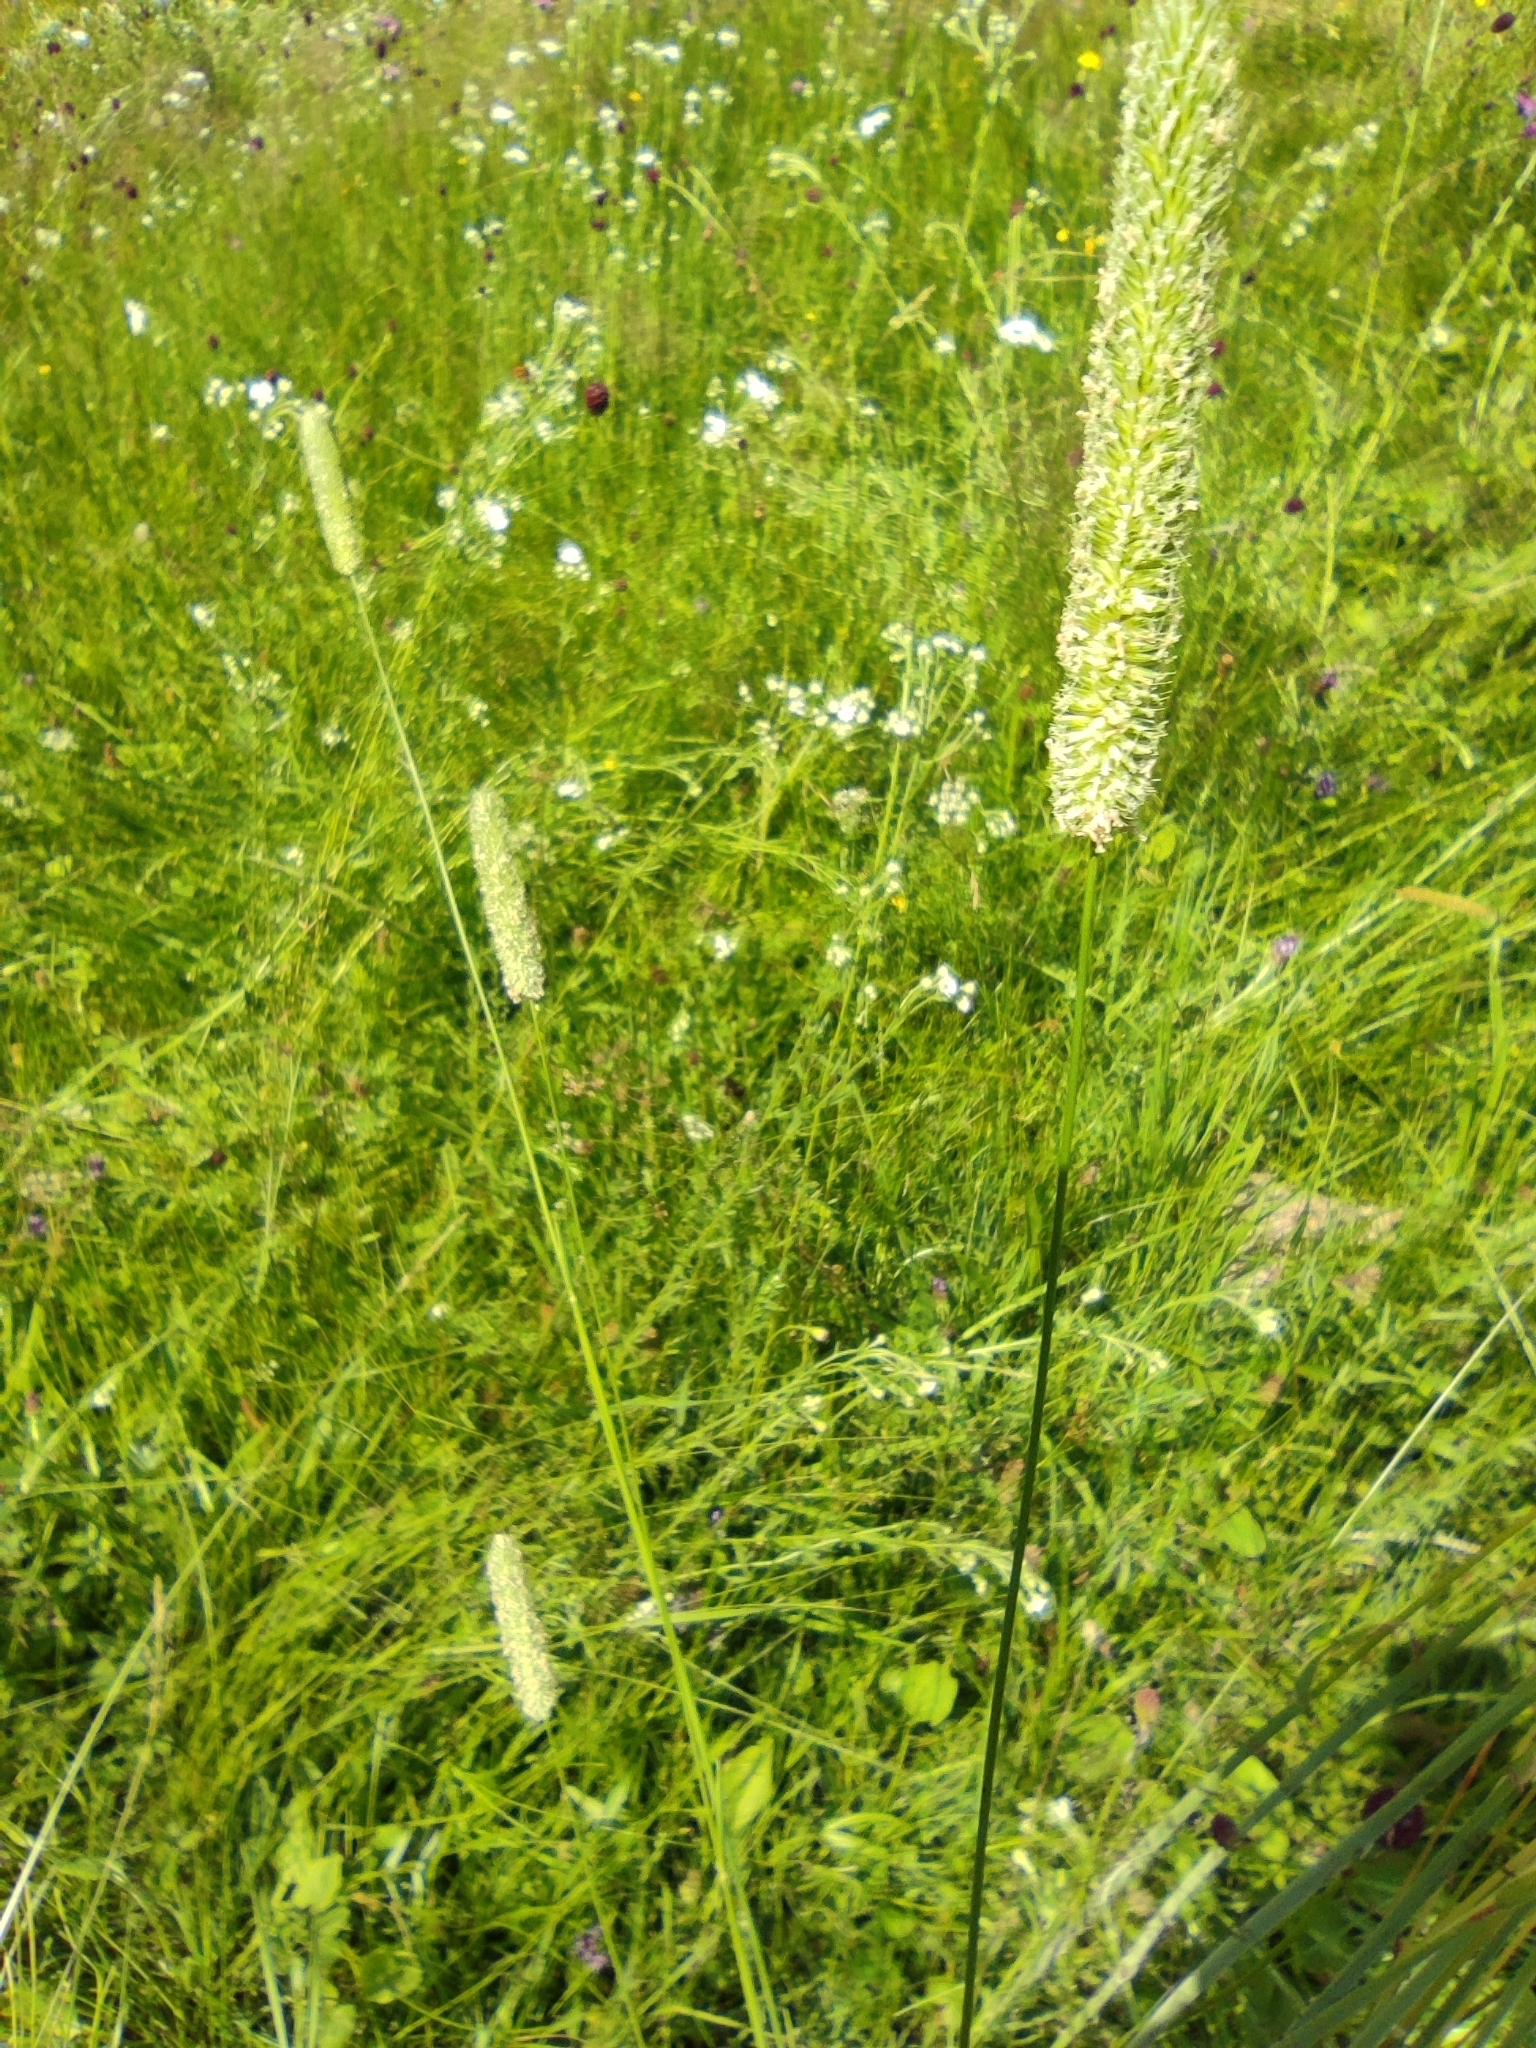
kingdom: Plantae
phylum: Tracheophyta
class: Liliopsida
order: Poales
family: Poaceae
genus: Phleum
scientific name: Phleum pratense
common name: Timothy grass
